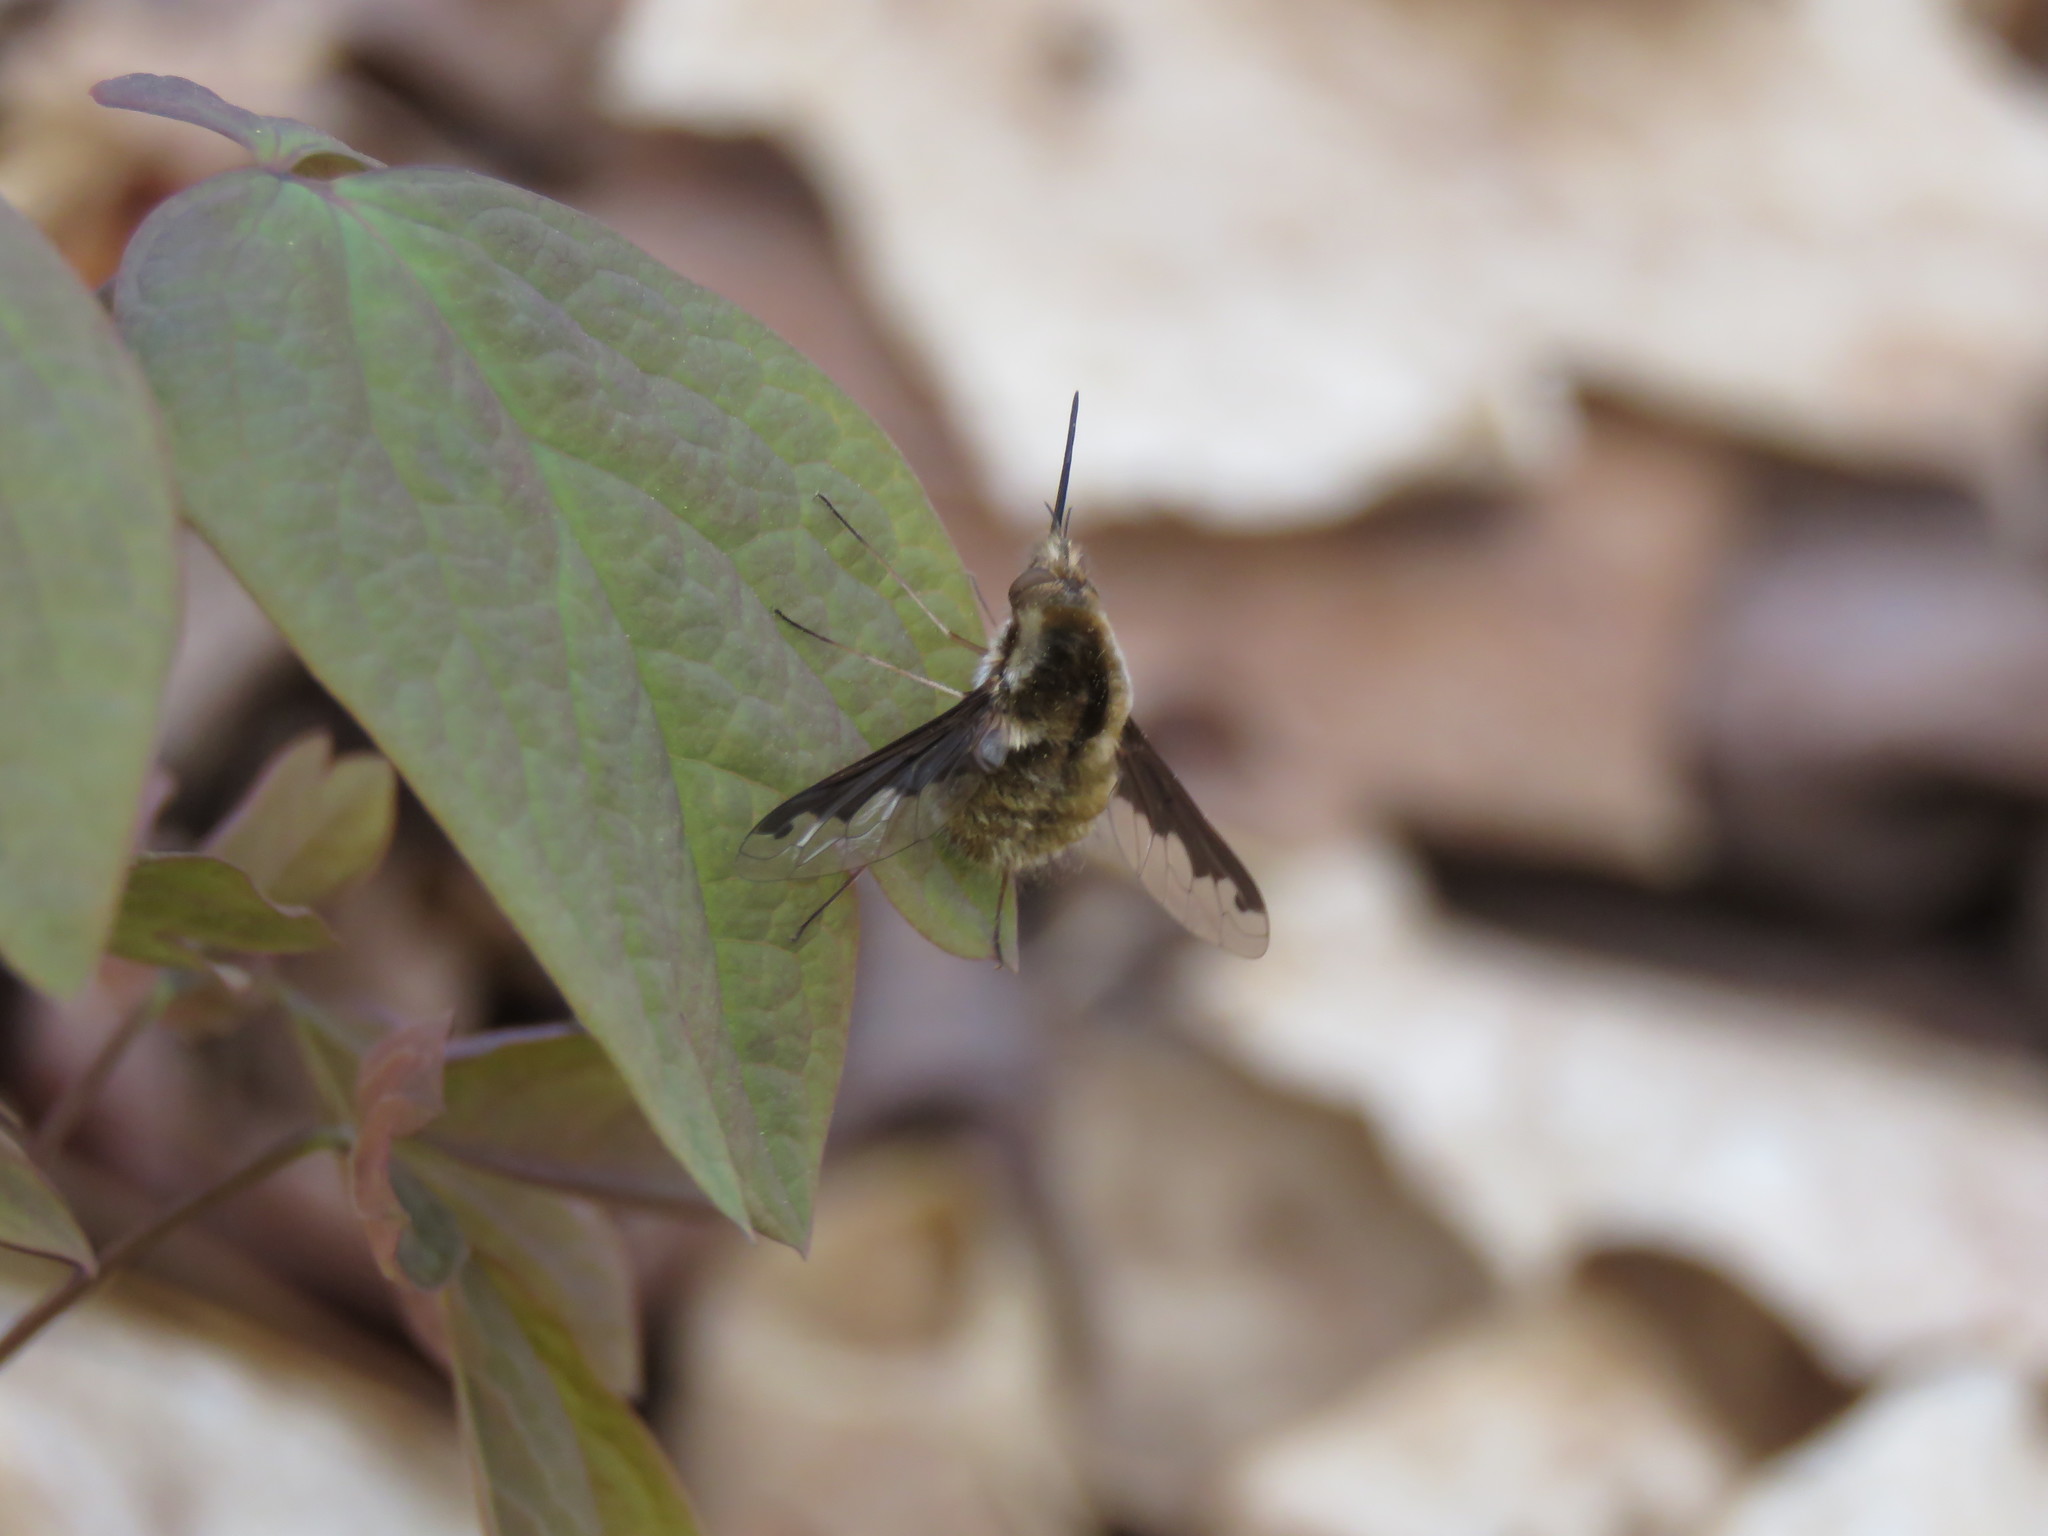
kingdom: Animalia
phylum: Arthropoda
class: Insecta
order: Diptera
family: Bombyliidae
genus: Bombylius
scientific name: Bombylius major
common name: Bee fly
